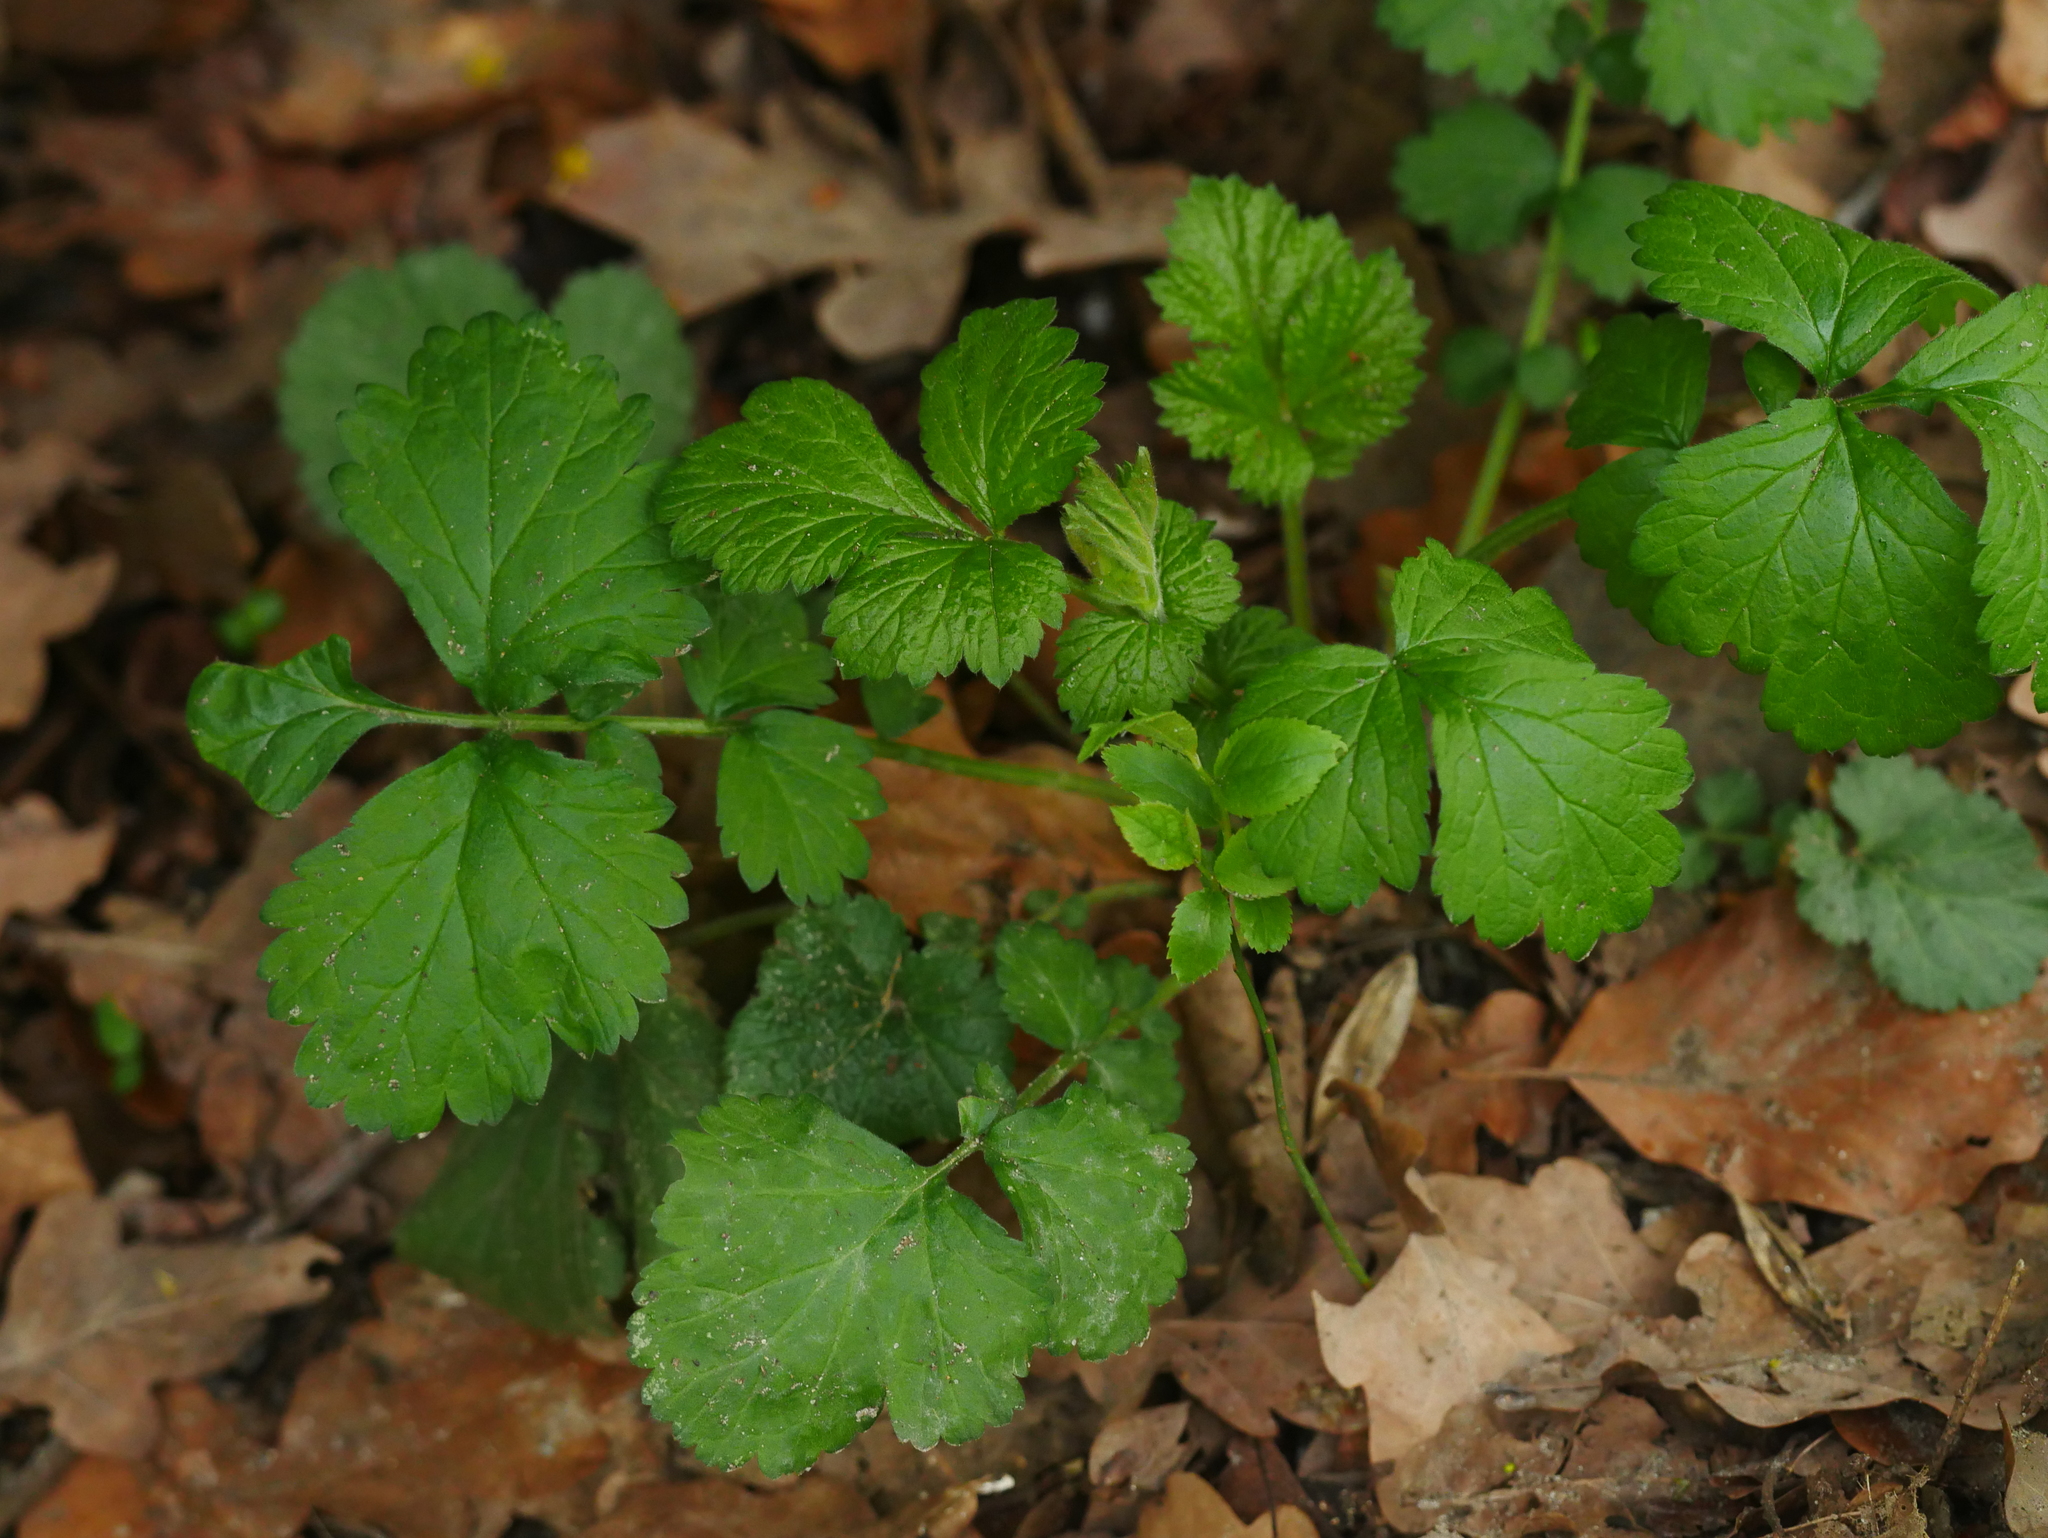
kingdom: Plantae
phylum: Tracheophyta
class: Magnoliopsida
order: Rosales
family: Rosaceae
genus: Geum
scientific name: Geum urbanum
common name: Wood avens
